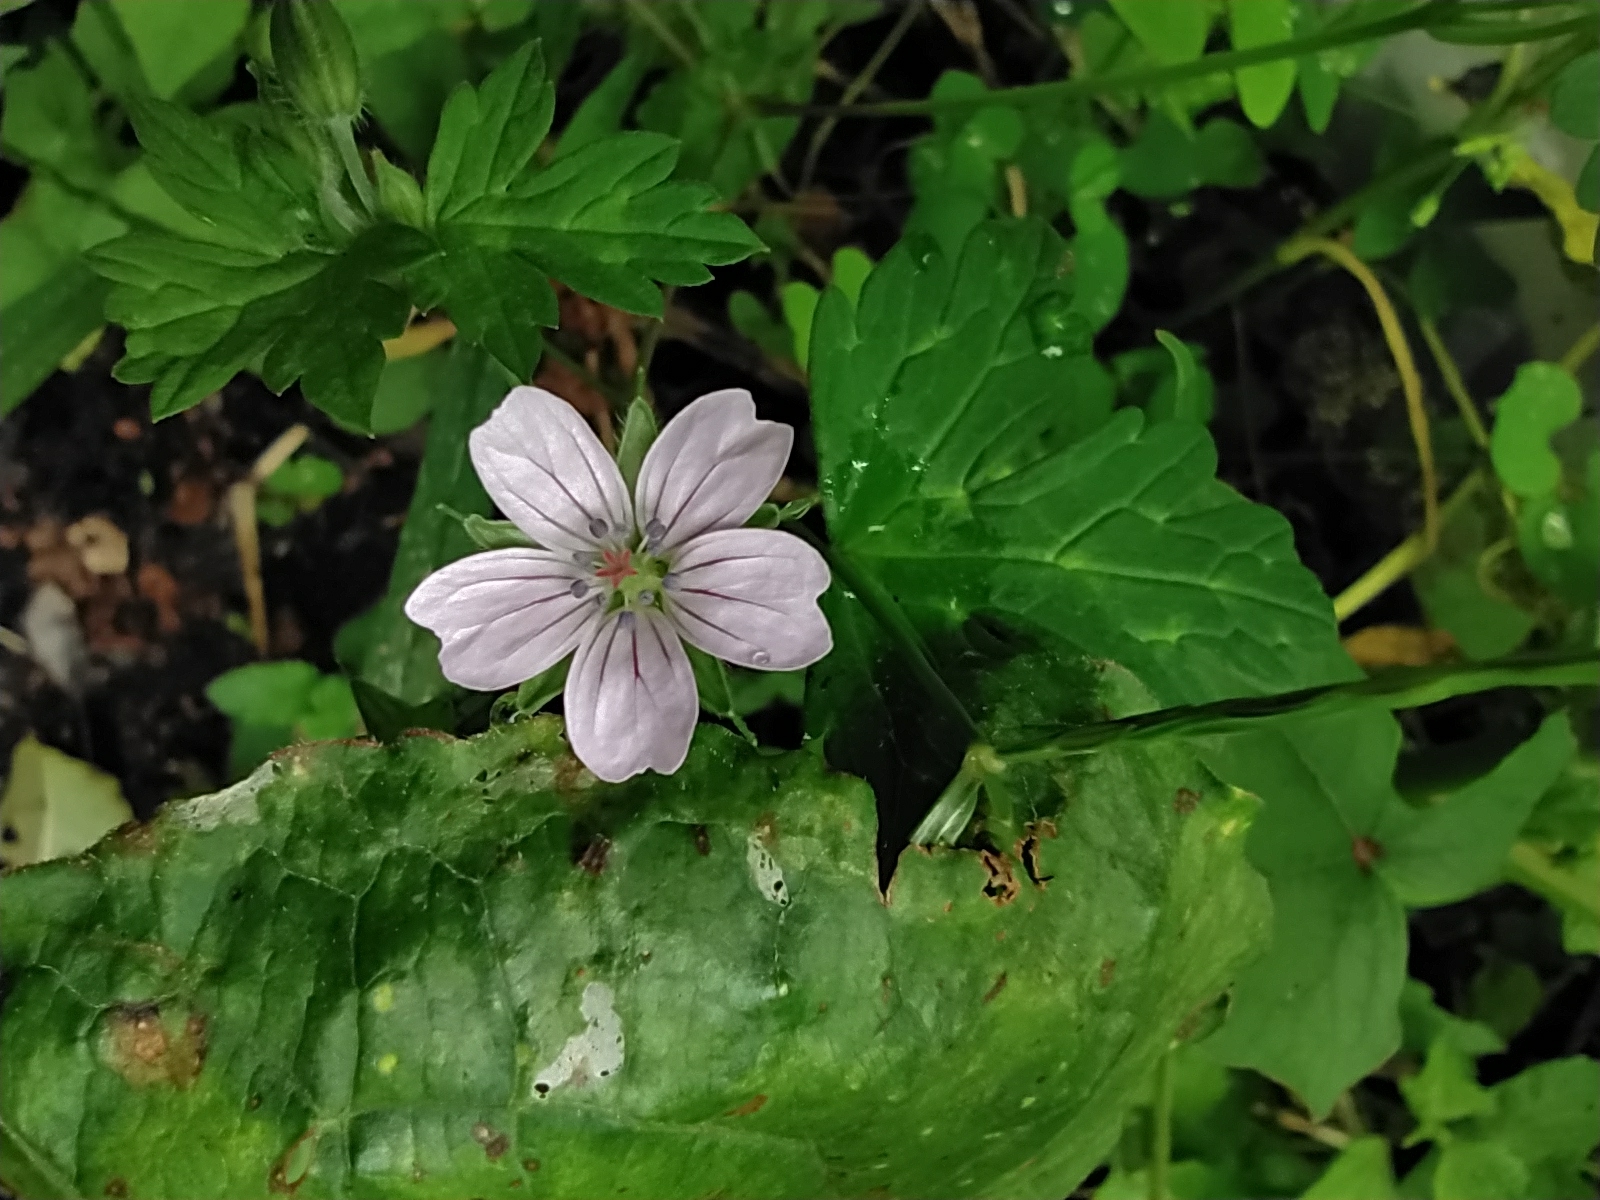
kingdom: Plantae
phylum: Tracheophyta
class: Magnoliopsida
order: Geraniales
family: Geraniaceae
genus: Geranium
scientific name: Geranium nepalense
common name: Nepalese crane's-bill
